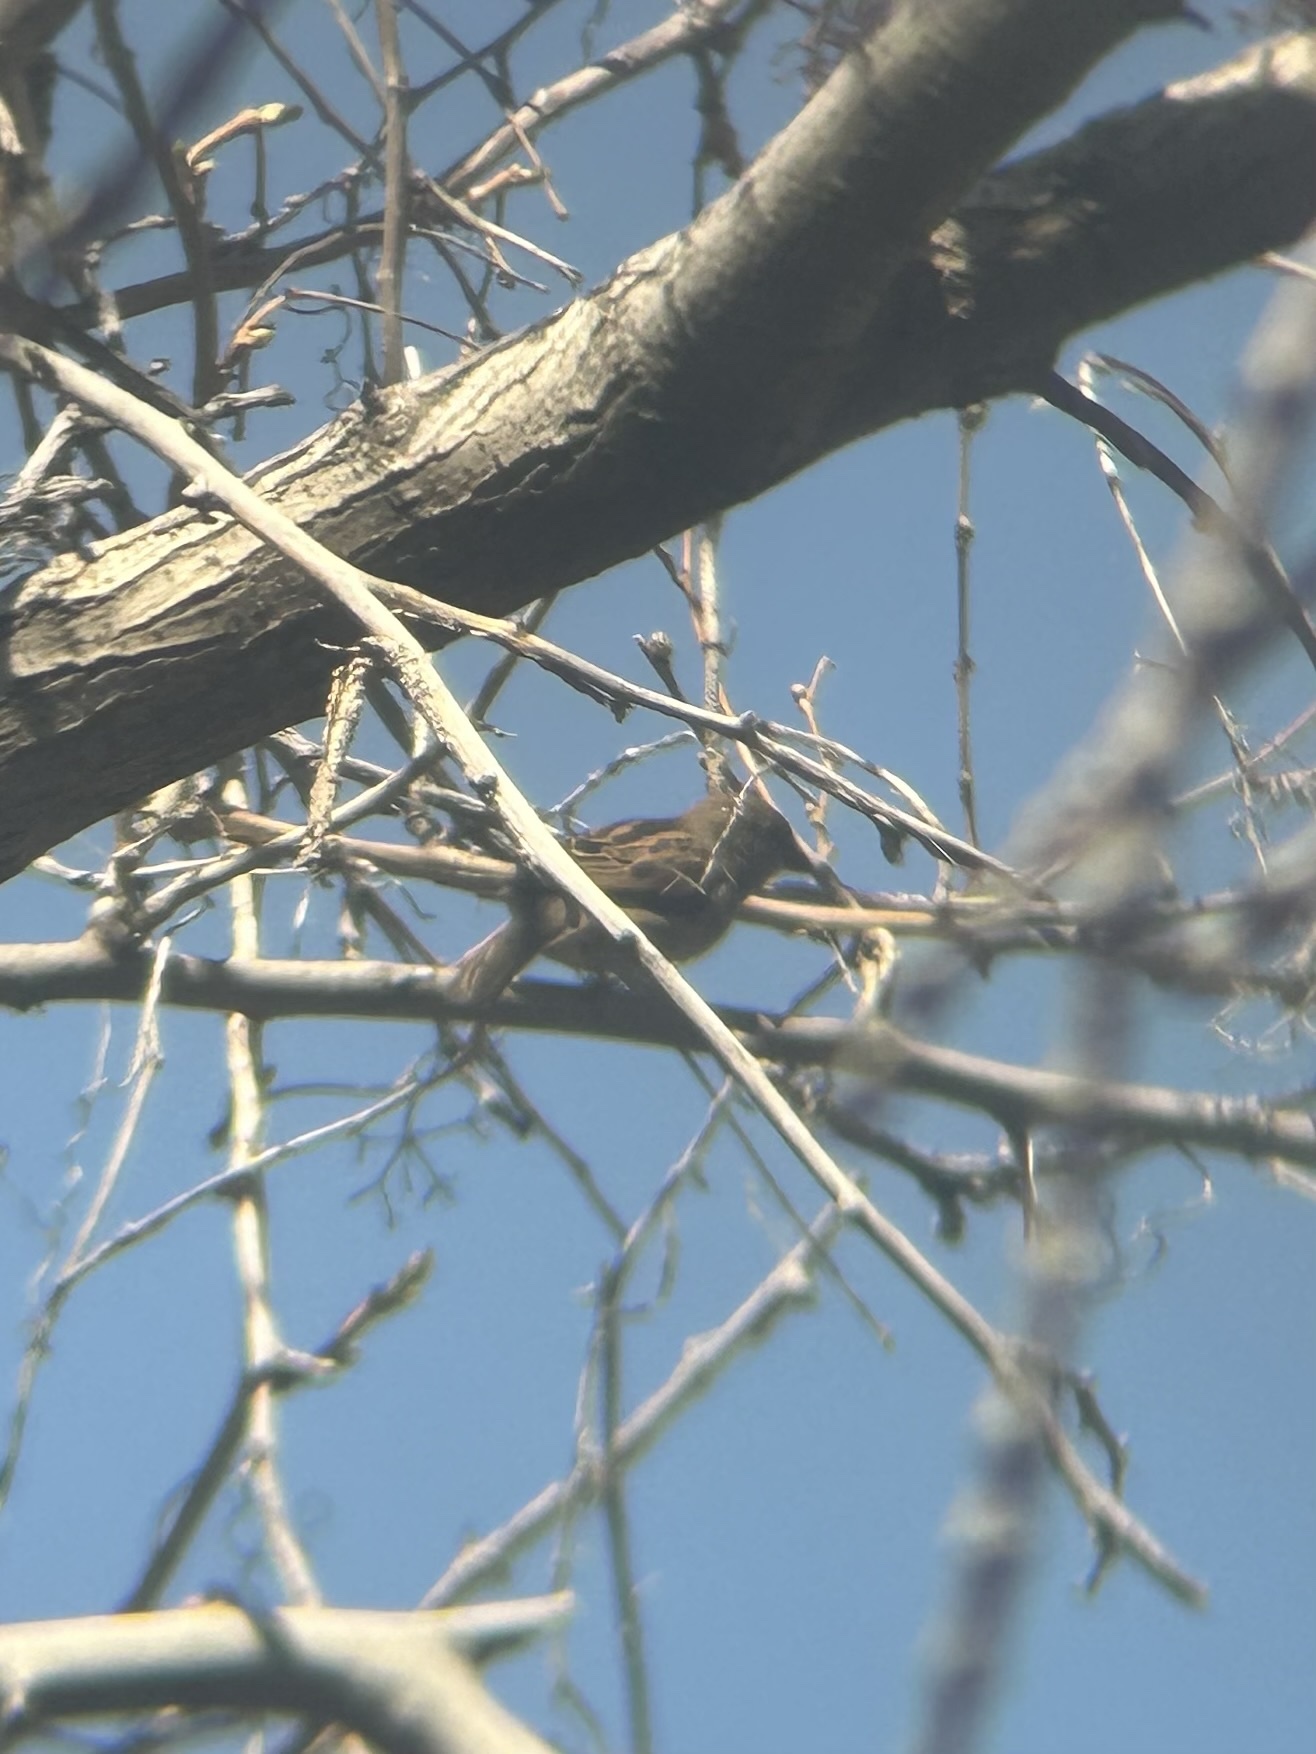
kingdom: Animalia
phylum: Chordata
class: Aves
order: Passeriformes
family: Passeridae
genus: Passer
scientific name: Passer domesticus
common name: House sparrow
